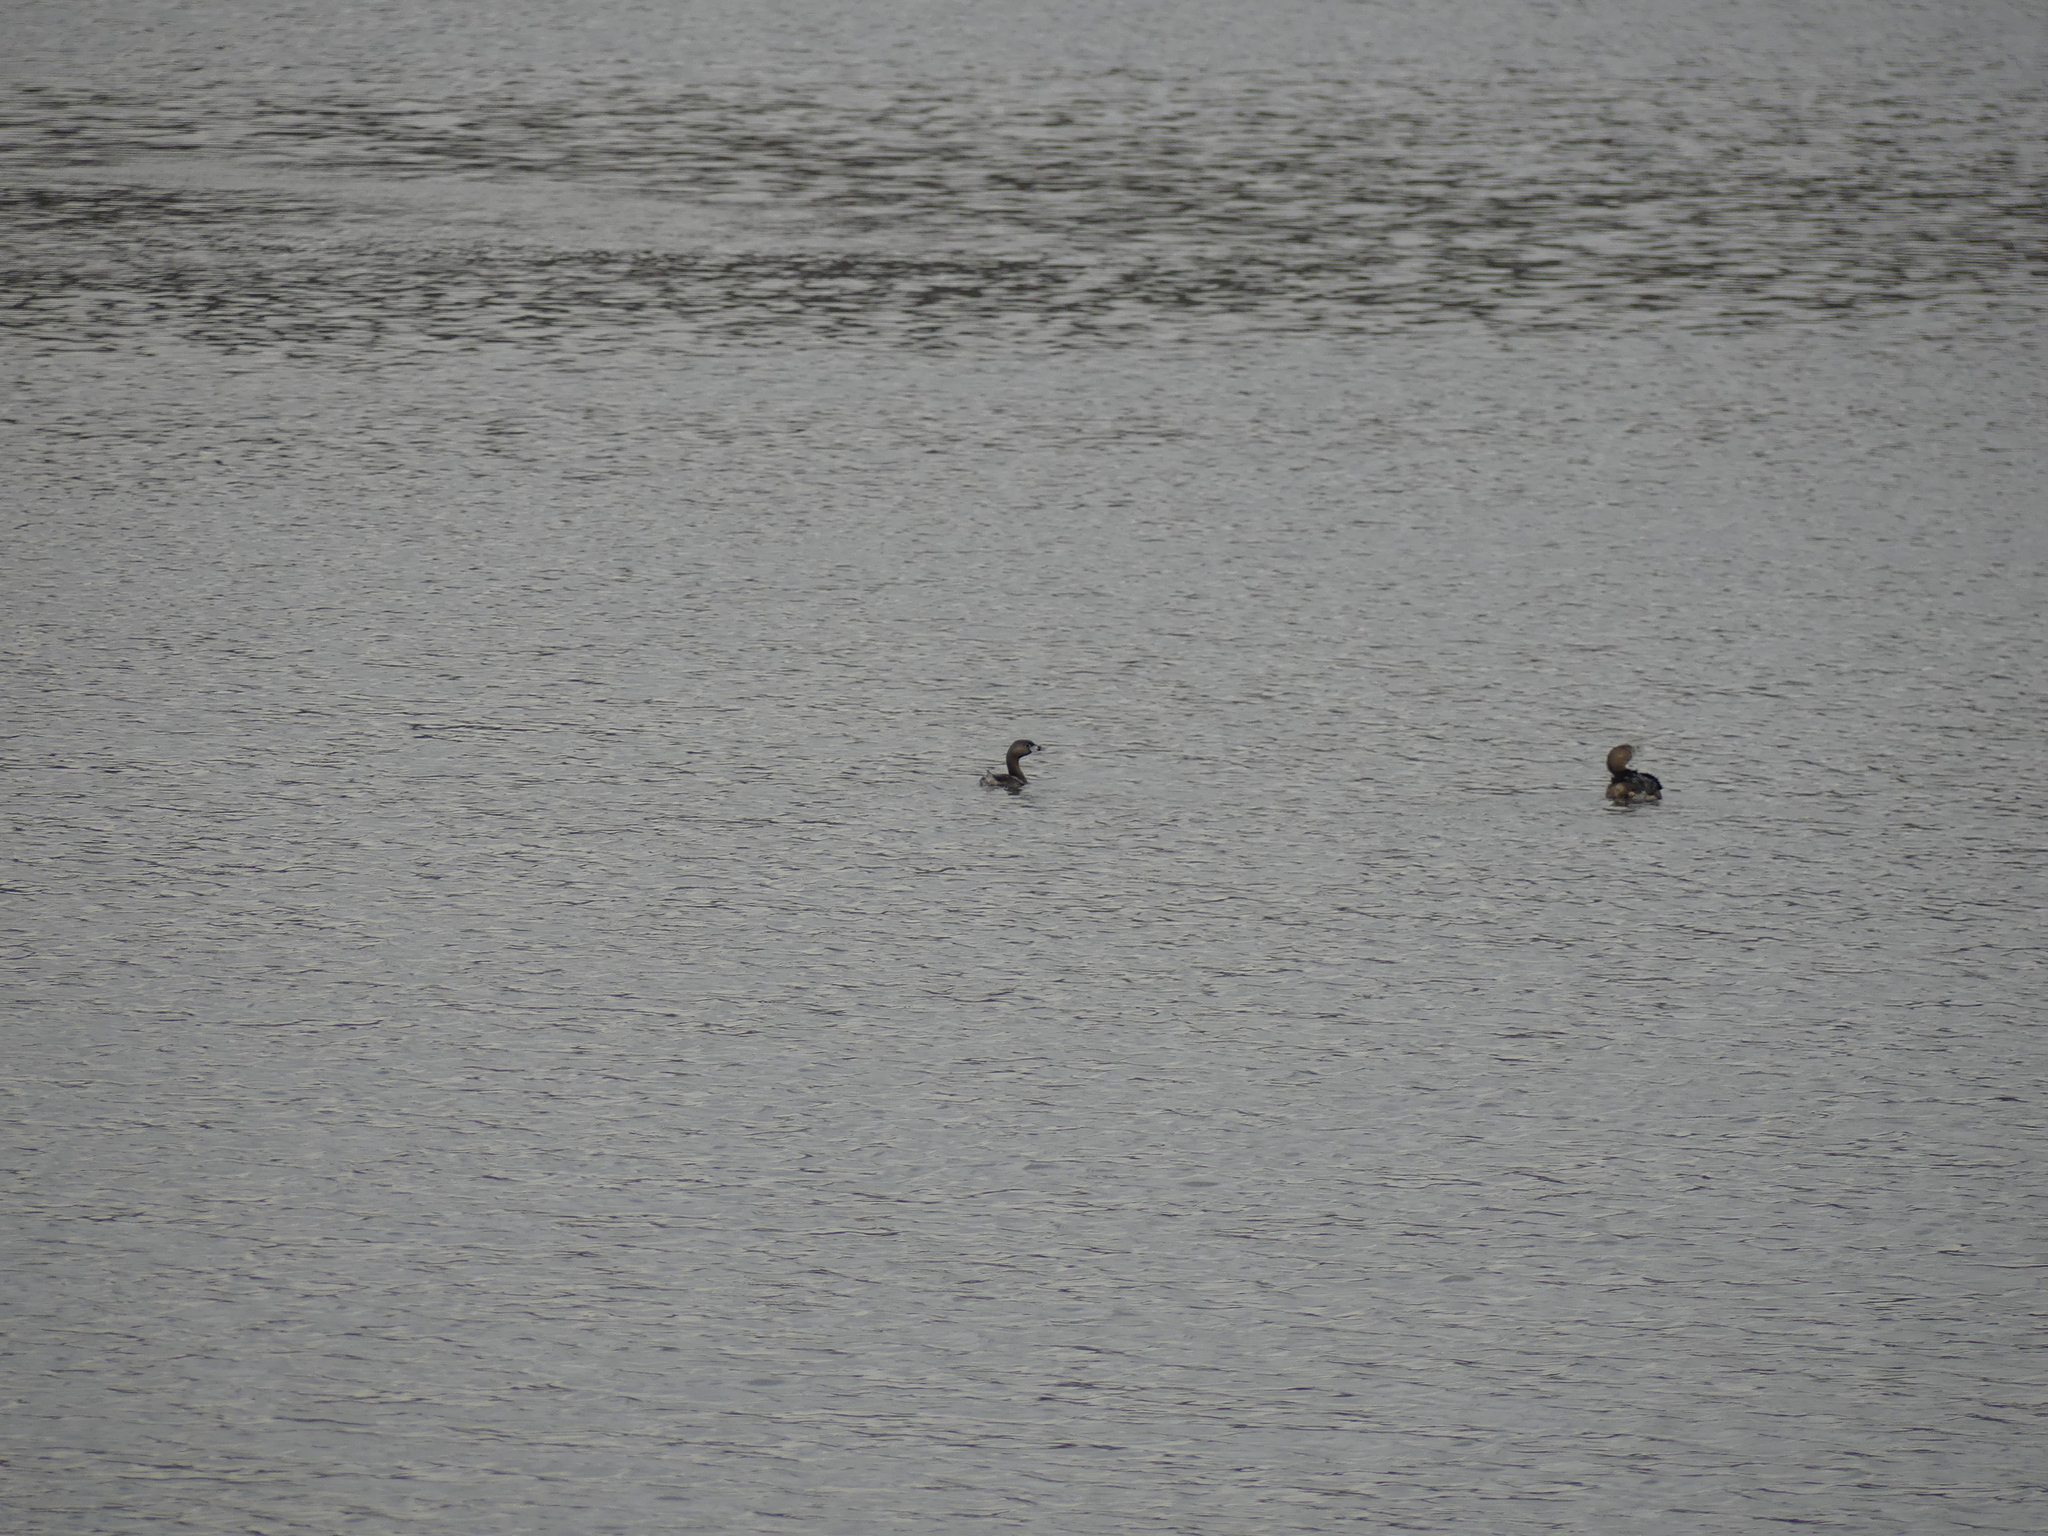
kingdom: Animalia
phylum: Chordata
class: Aves
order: Podicipediformes
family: Podicipedidae
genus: Podilymbus
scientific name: Podilymbus podiceps
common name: Pied-billed grebe
